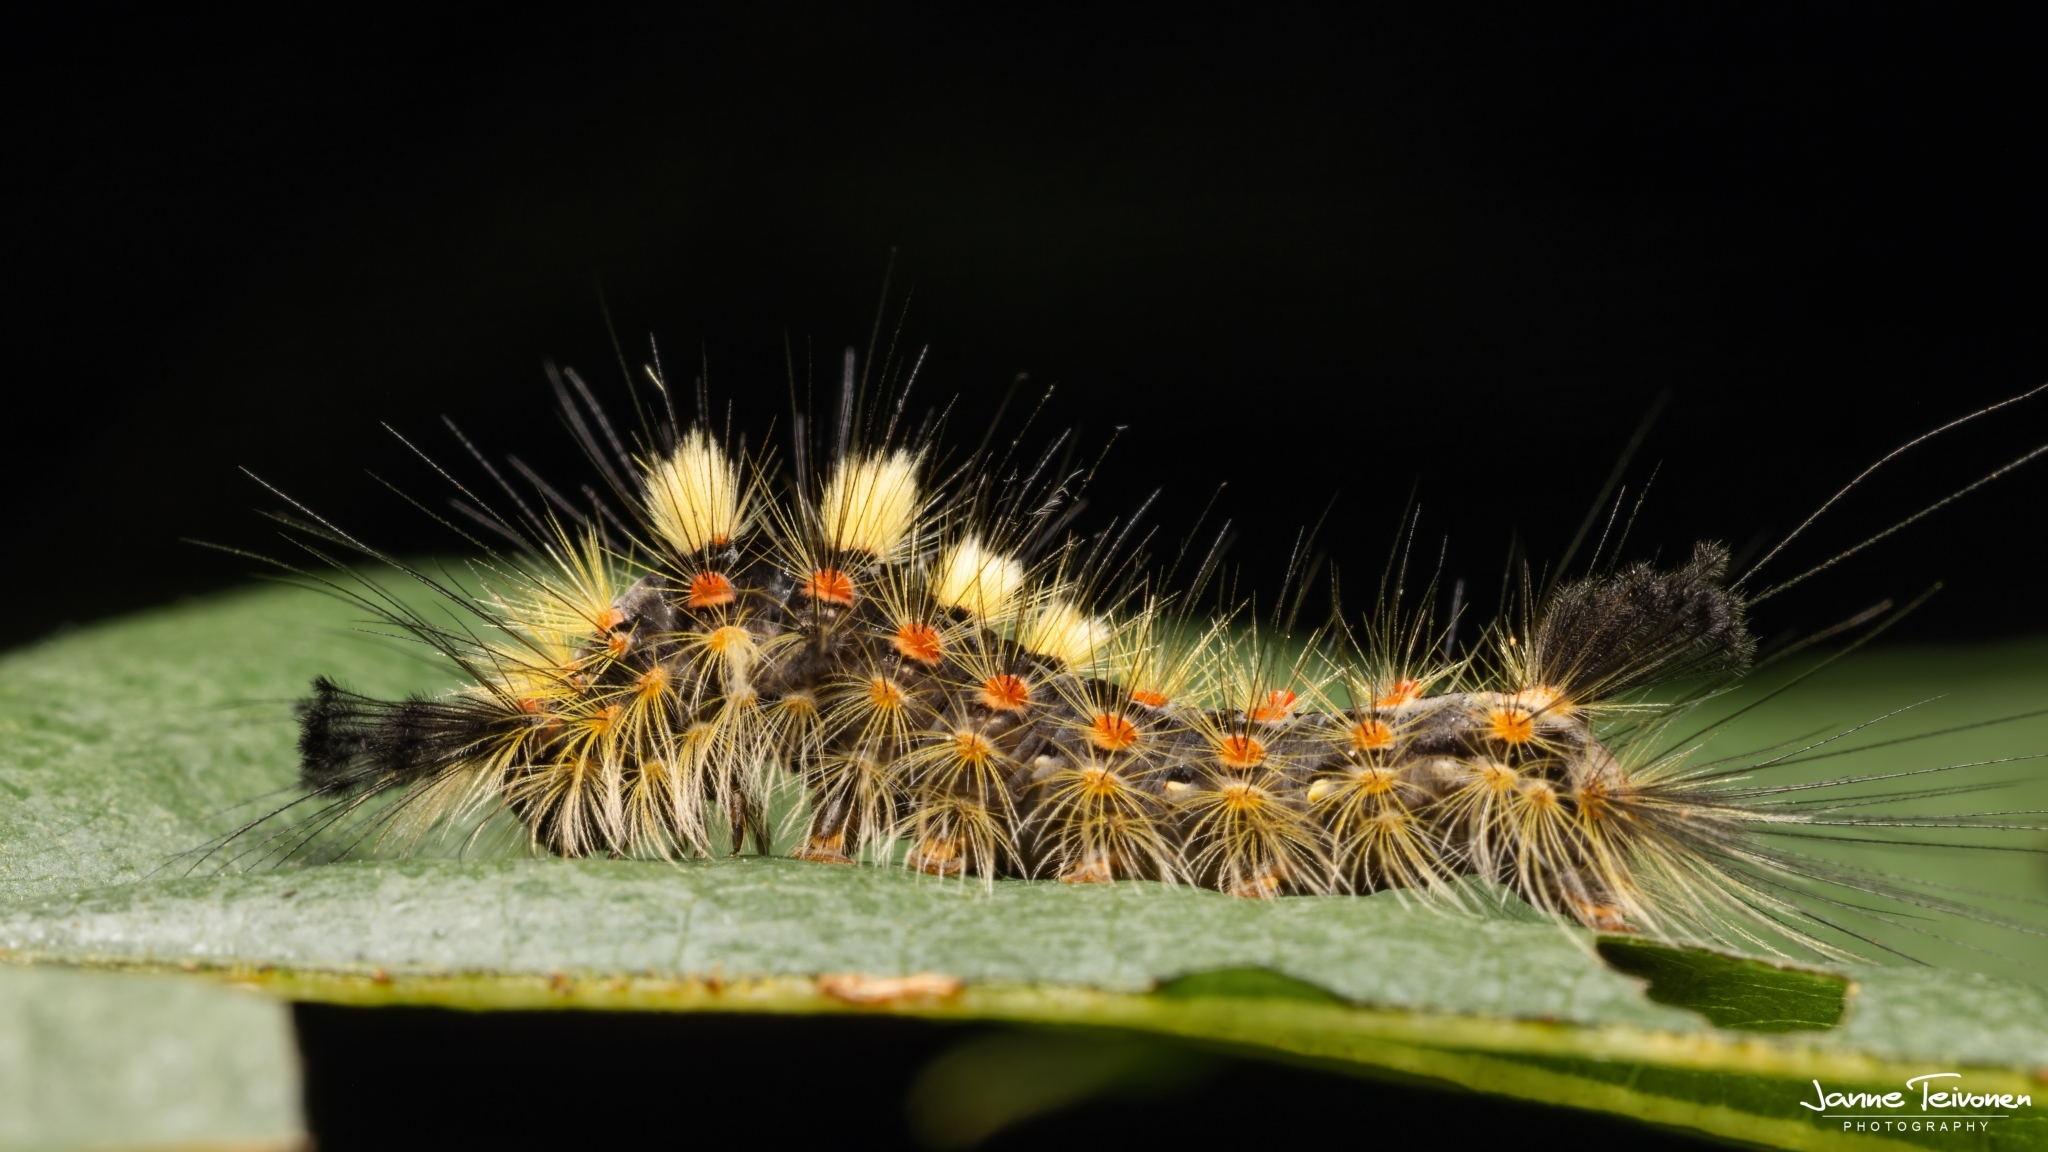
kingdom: Animalia
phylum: Arthropoda
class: Insecta
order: Lepidoptera
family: Erebidae
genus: Orgyia
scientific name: Orgyia antiqua
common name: Vapourer
